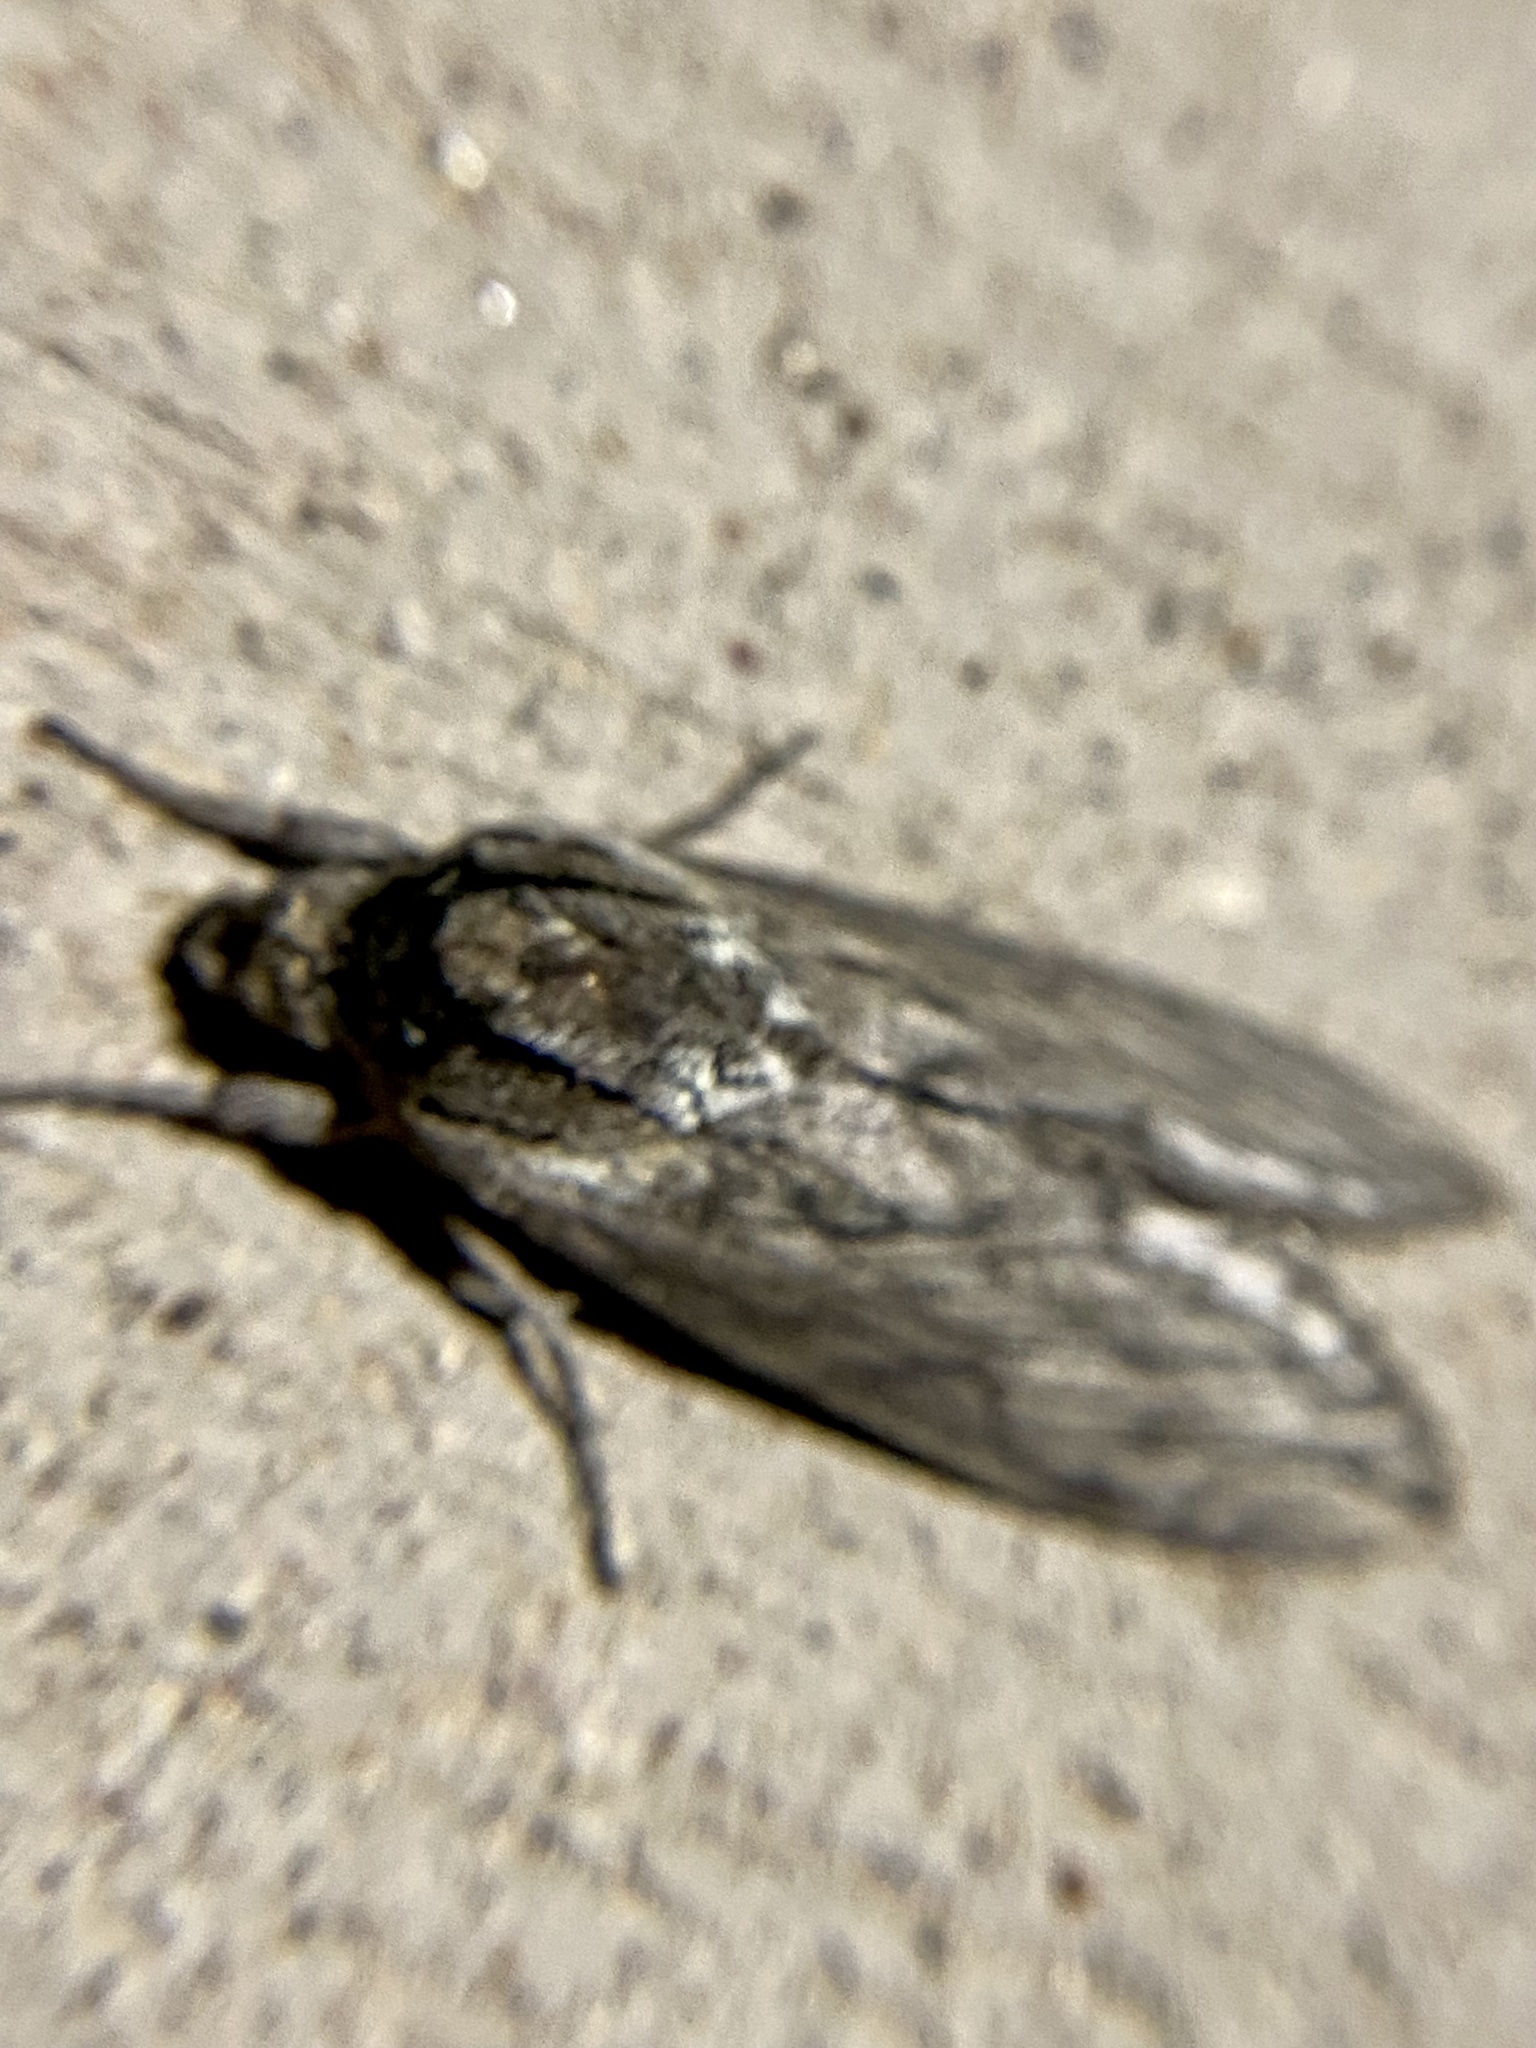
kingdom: Animalia
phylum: Arthropoda
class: Insecta
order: Lepidoptera
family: Sphingidae
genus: Sphinx
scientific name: Sphinx libocedrus
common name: Incense cedar sphinx
